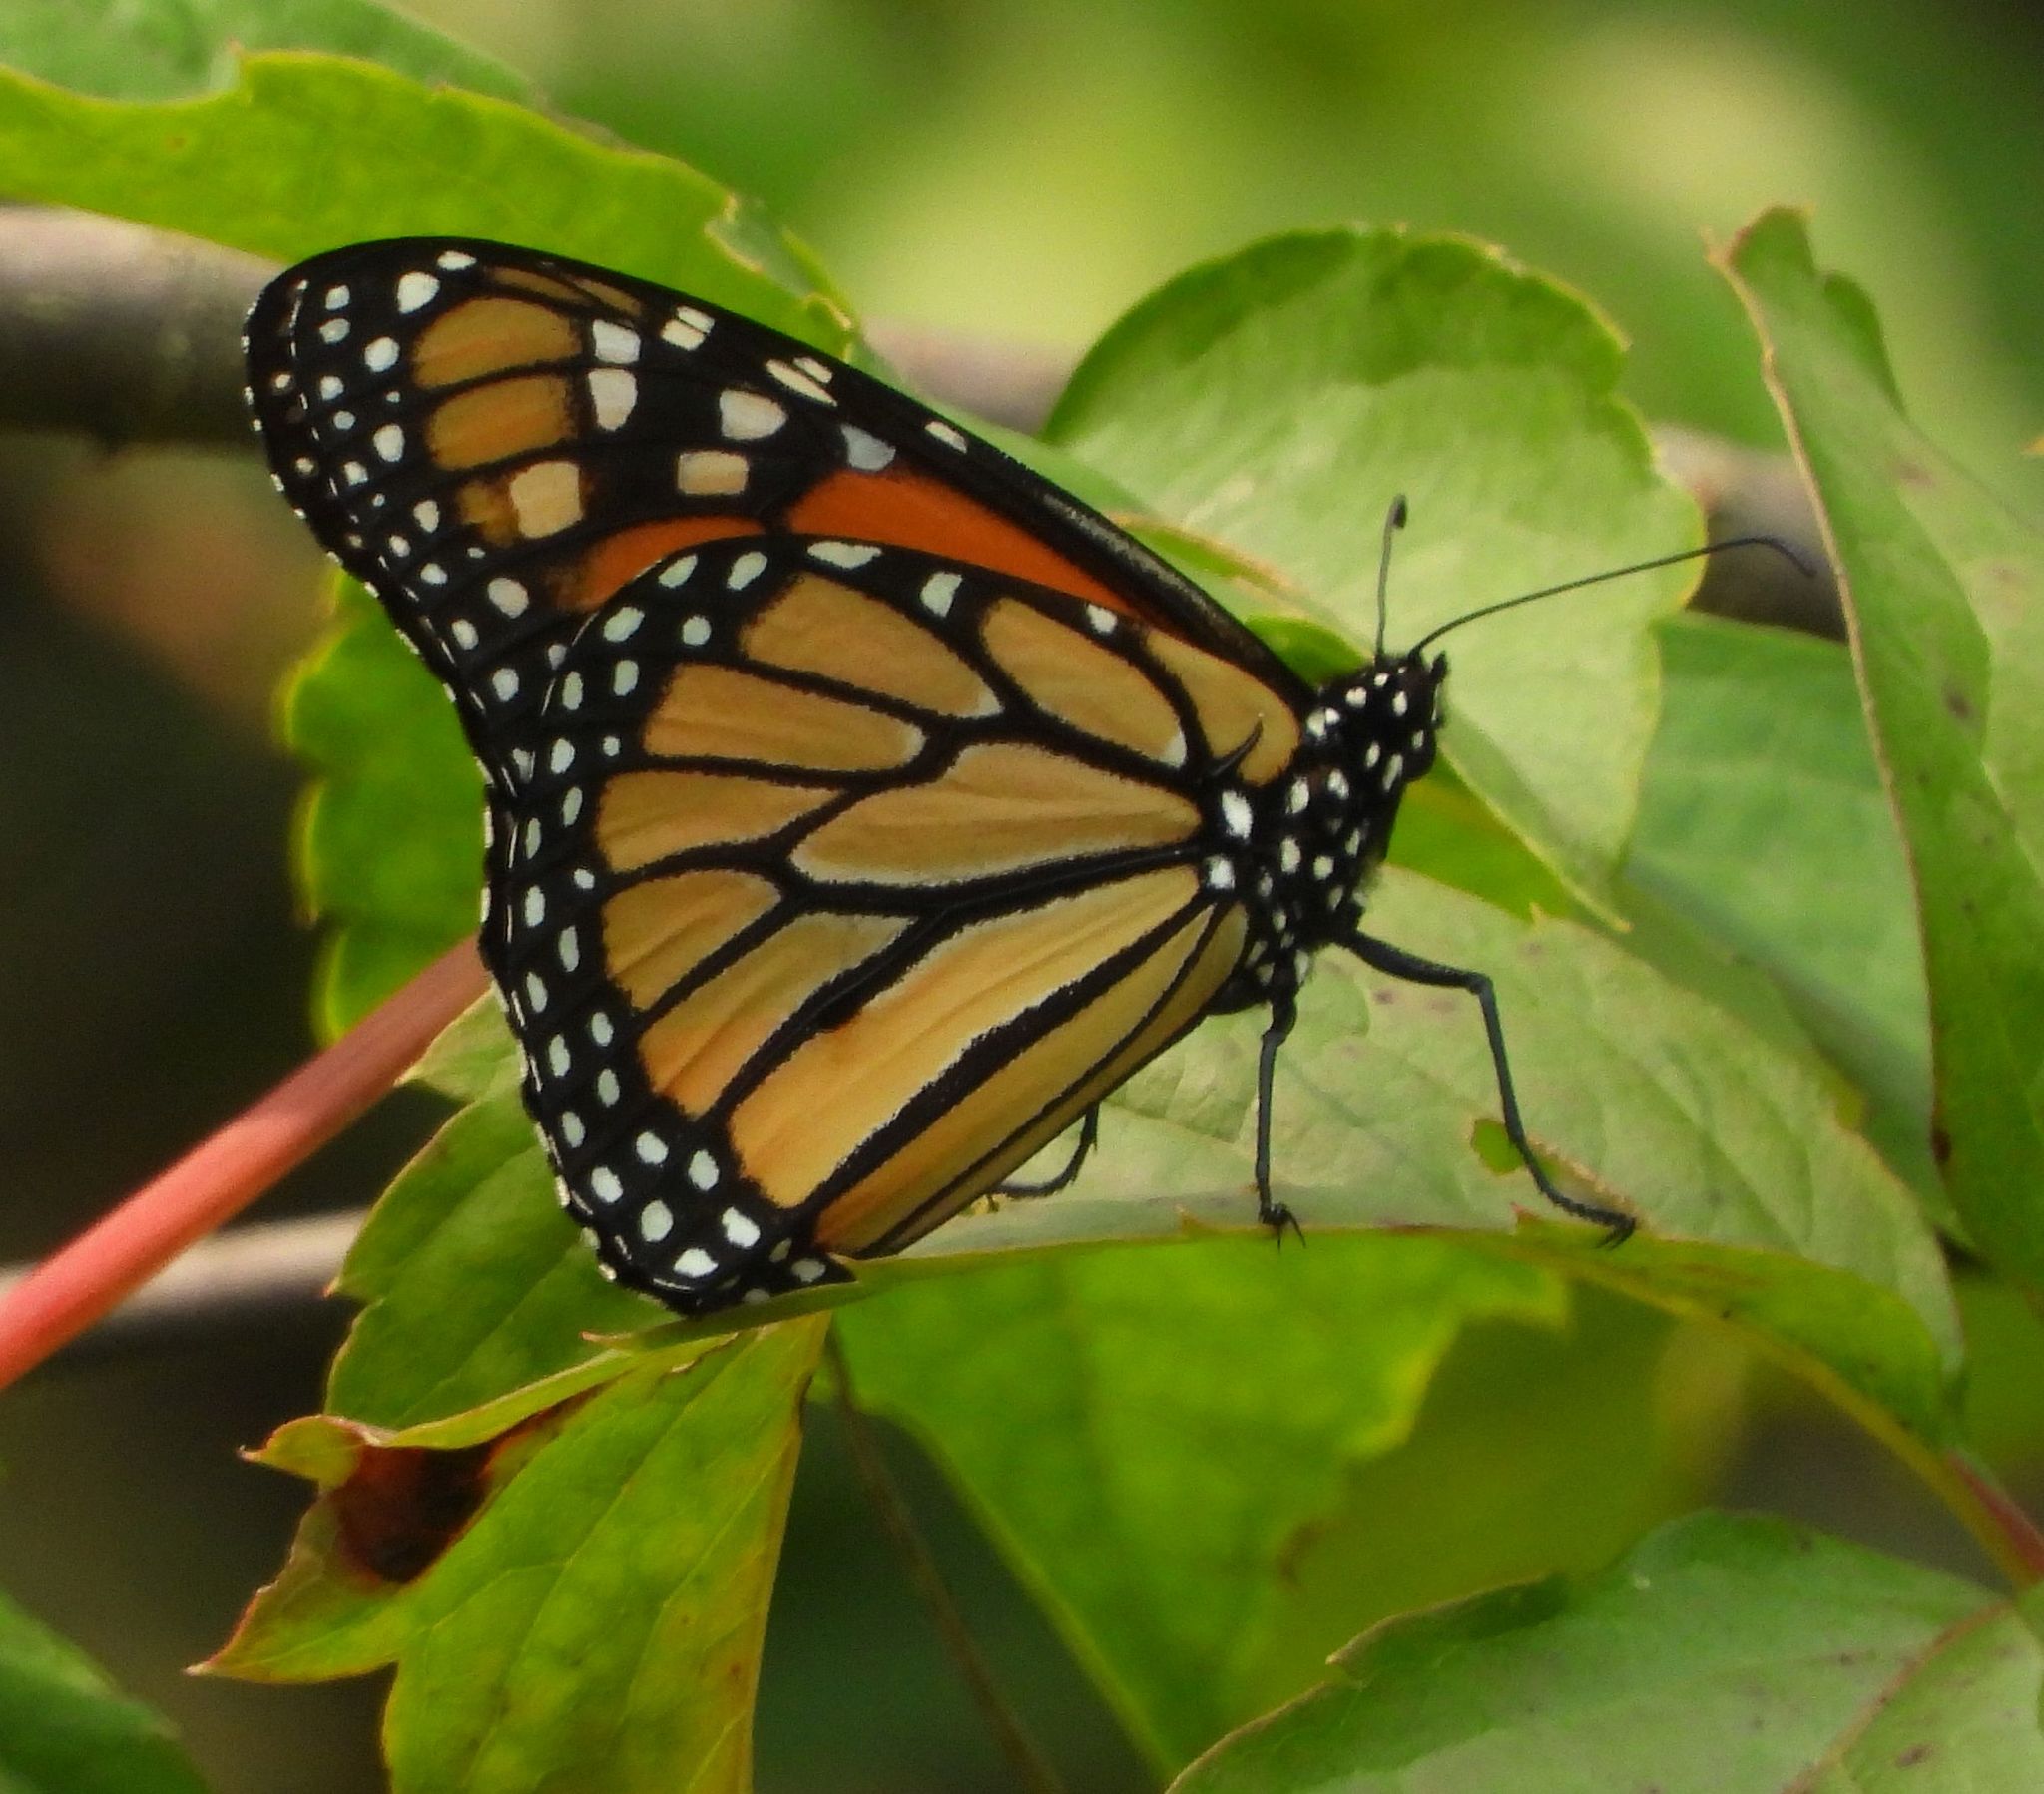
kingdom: Animalia
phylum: Arthropoda
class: Insecta
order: Lepidoptera
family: Nymphalidae
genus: Danaus
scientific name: Danaus plexippus
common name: Monarch
